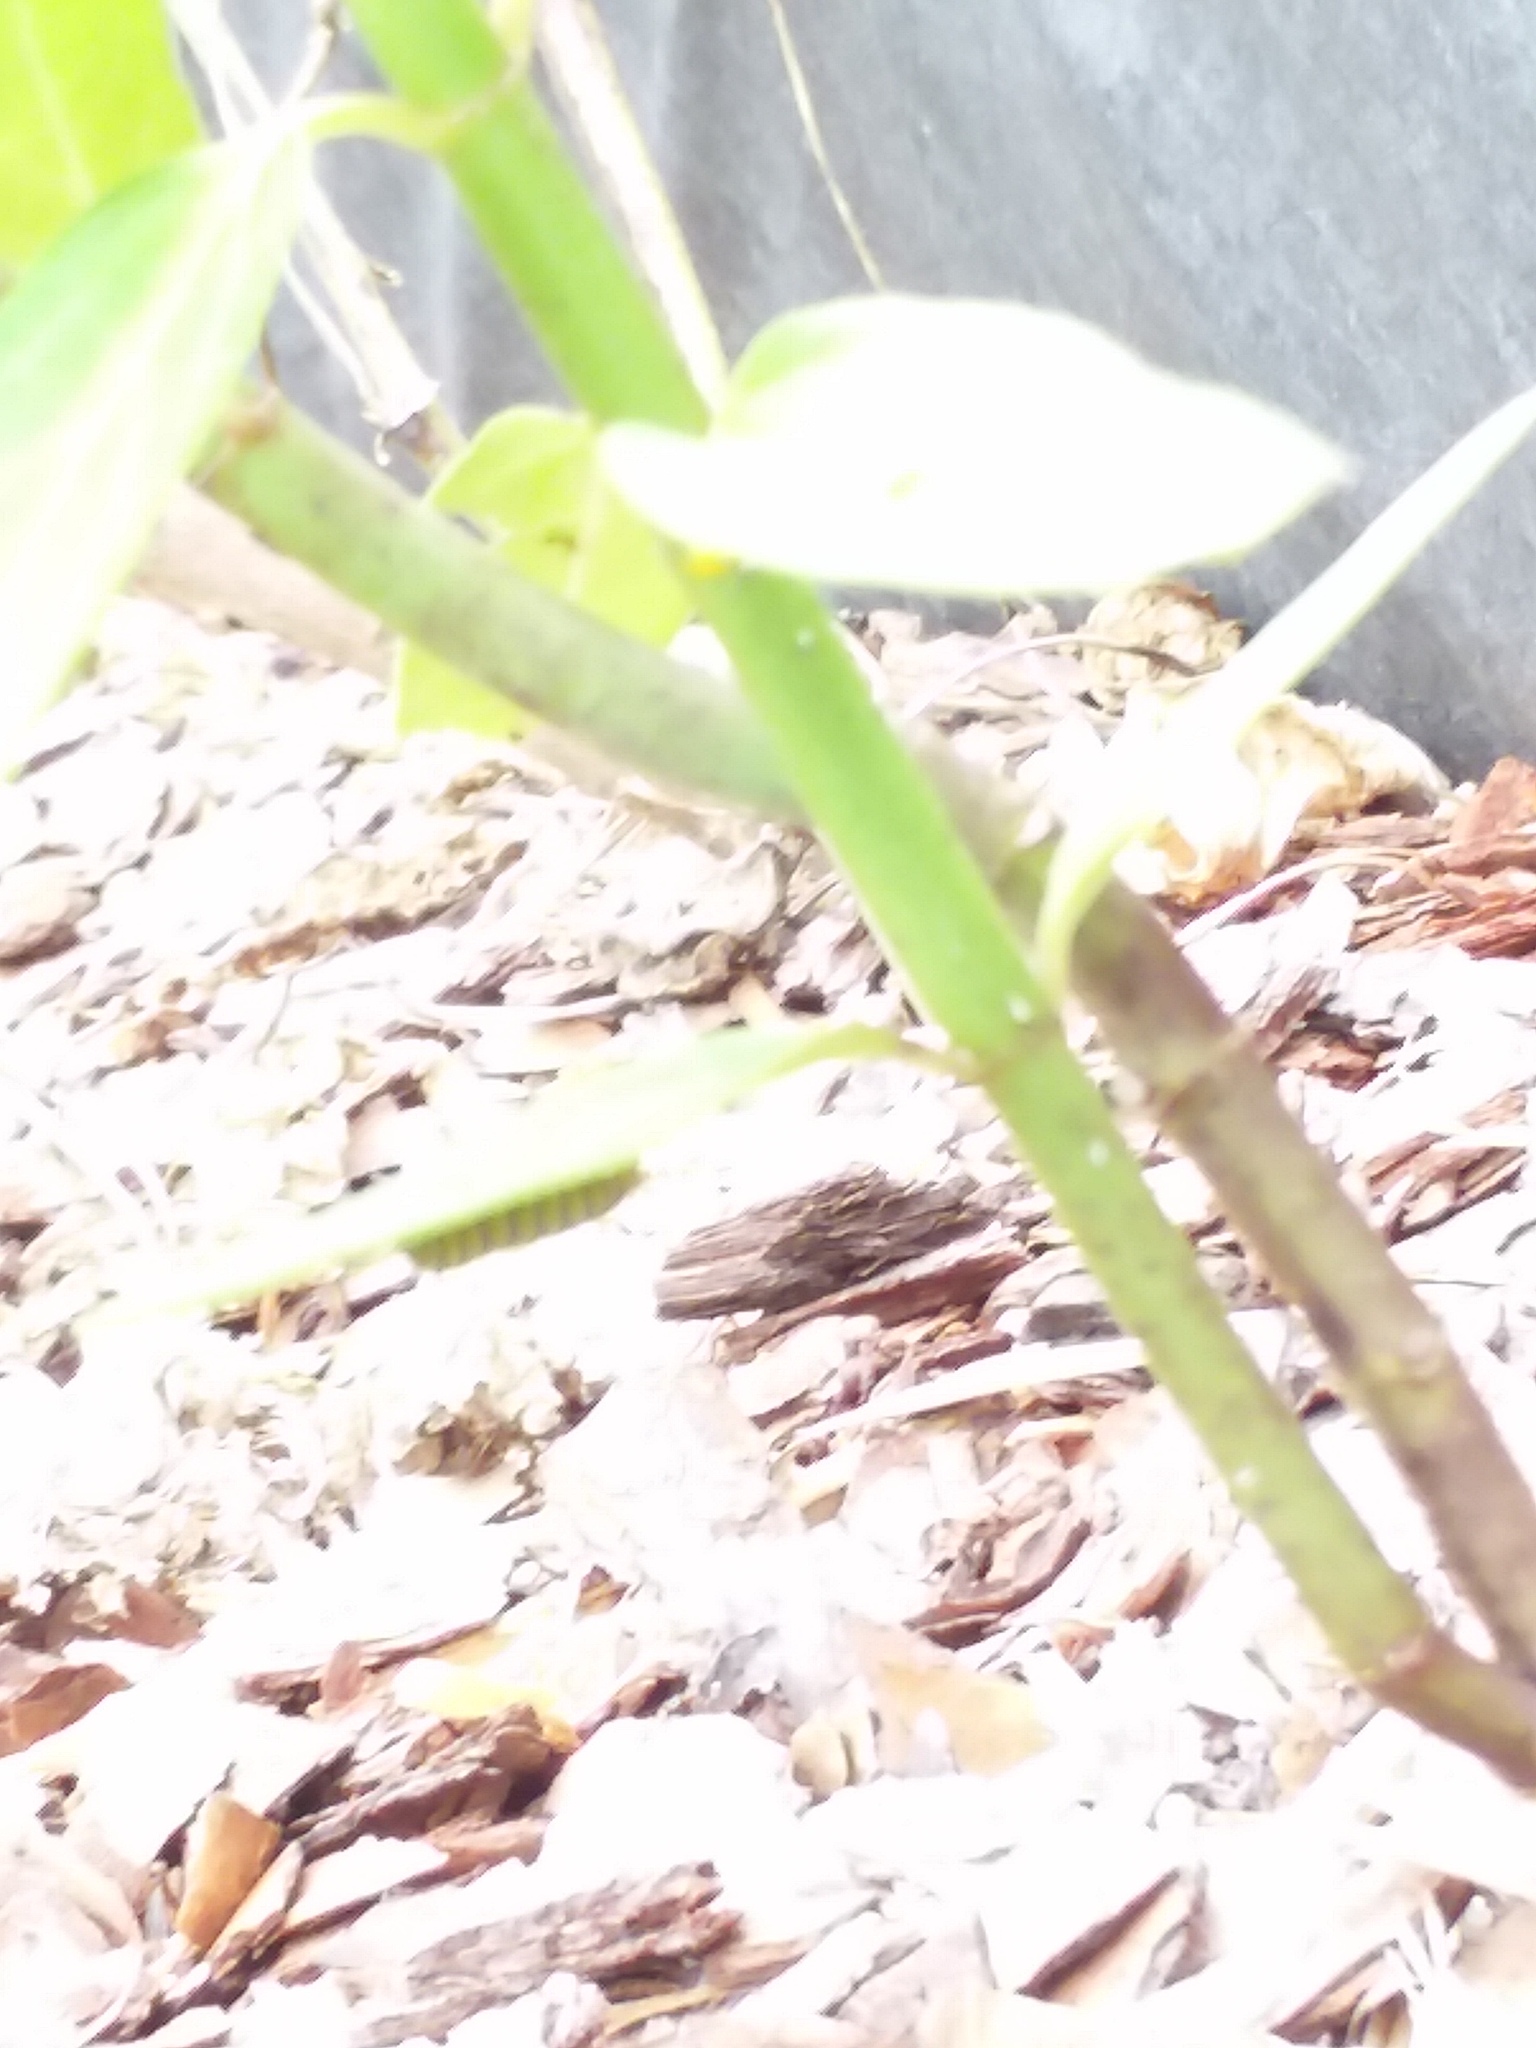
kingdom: Animalia
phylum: Arthropoda
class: Insecta
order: Lepidoptera
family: Nymphalidae
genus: Danaus
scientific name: Danaus plexippus
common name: Monarch
